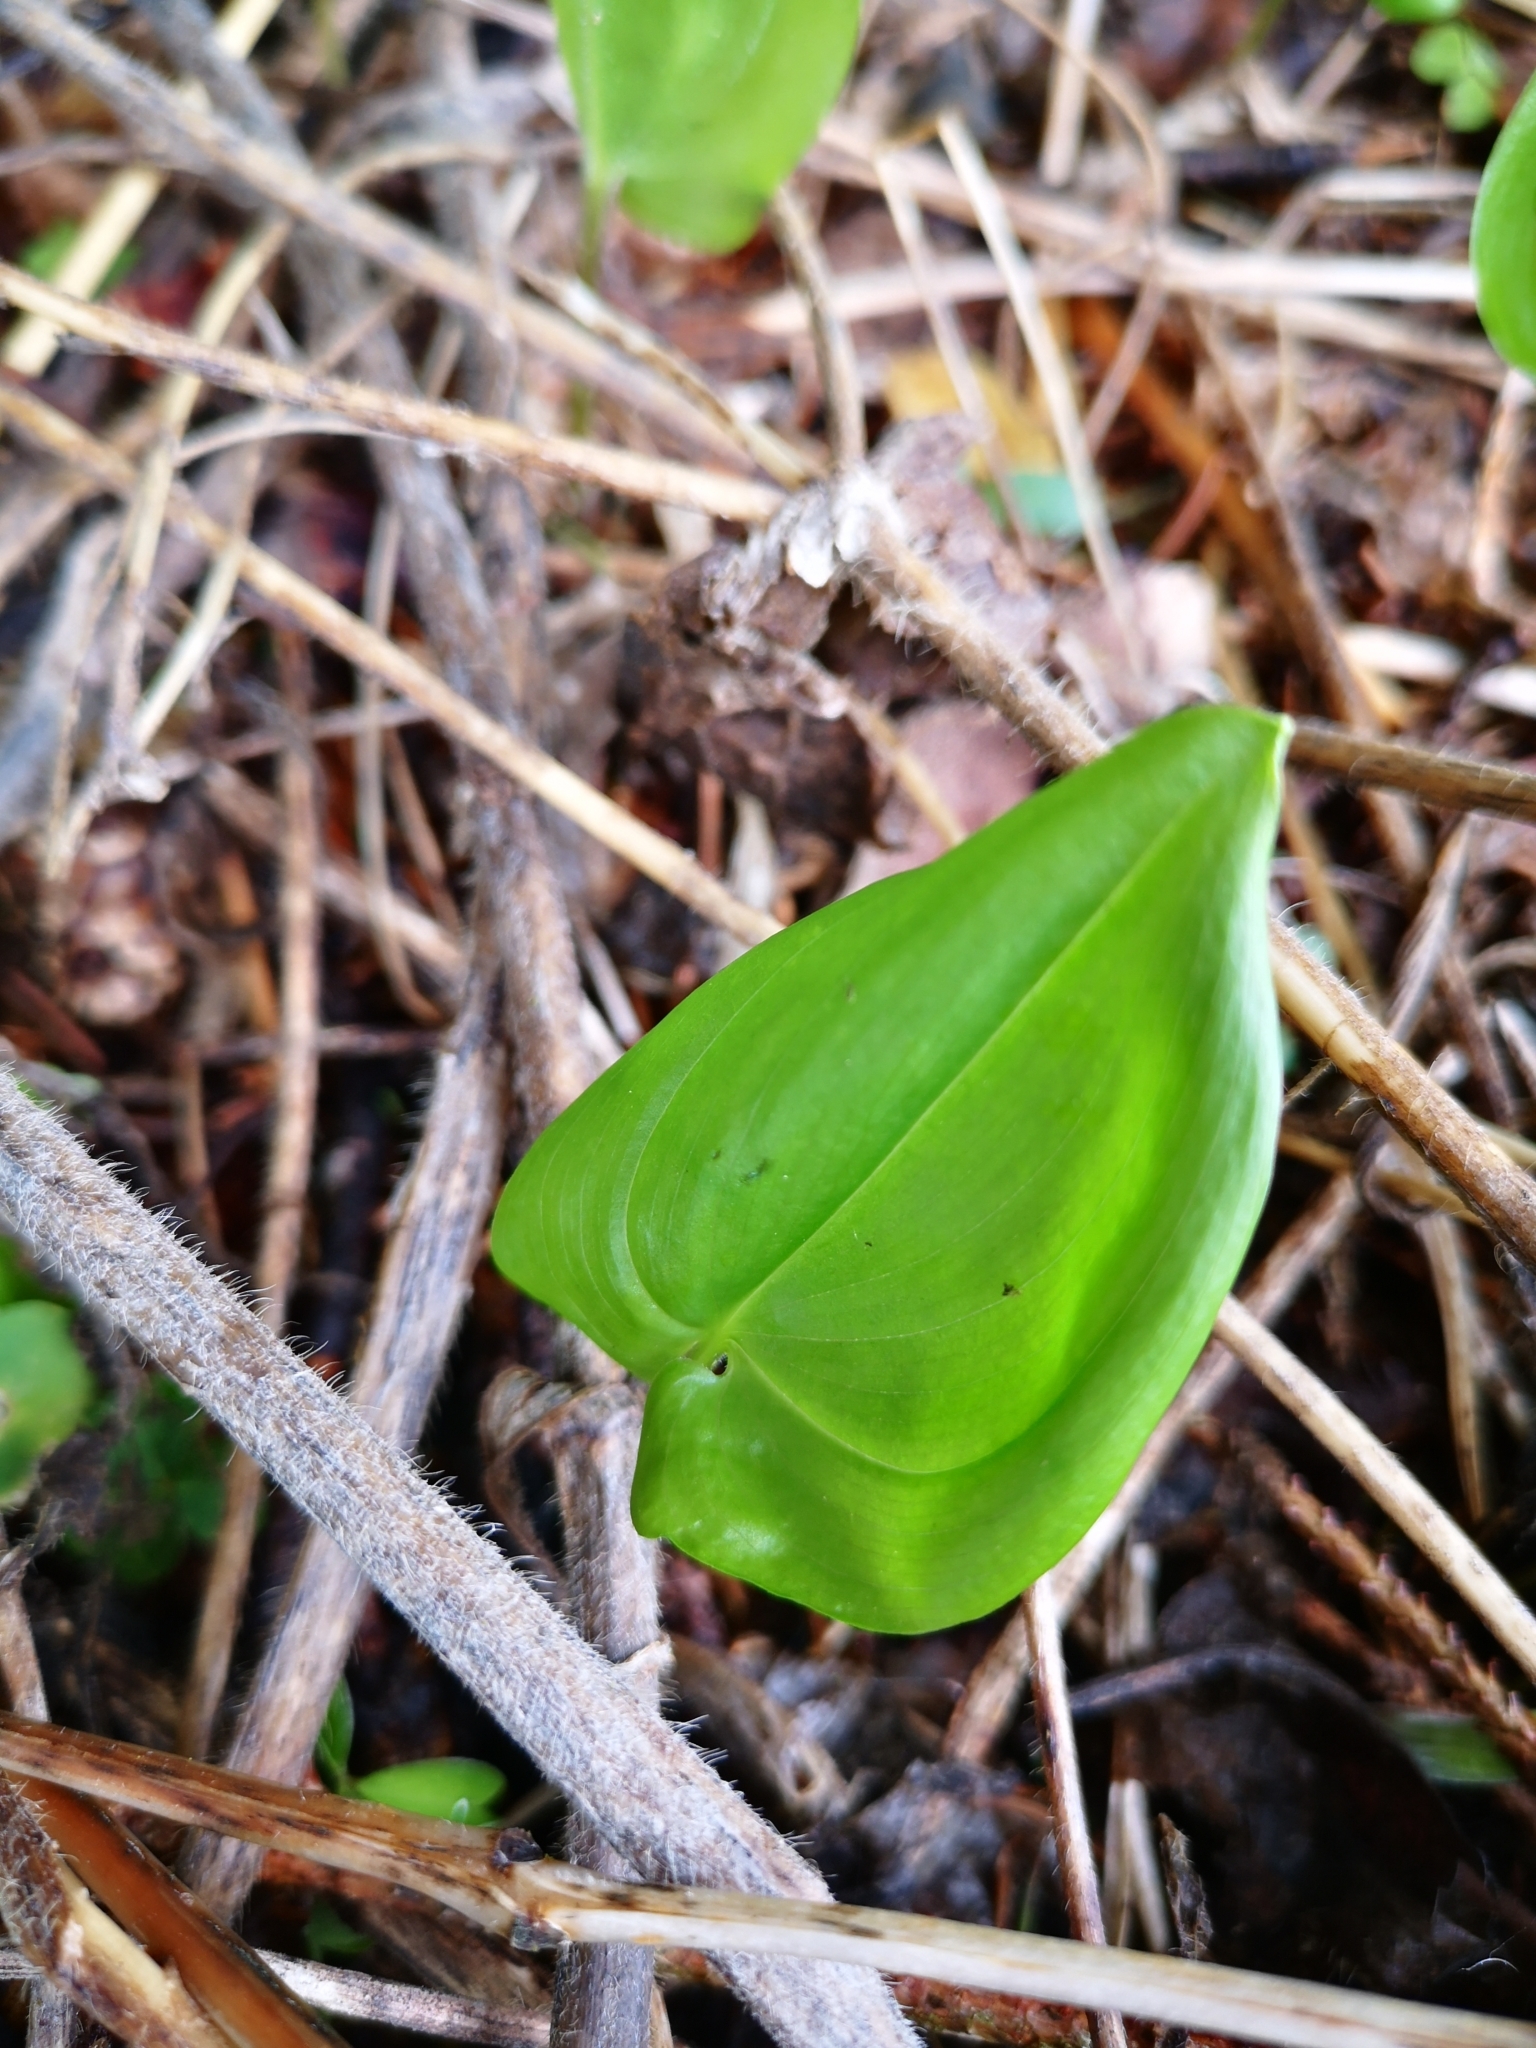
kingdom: Plantae
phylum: Tracheophyta
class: Liliopsida
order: Asparagales
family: Asparagaceae
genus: Maianthemum
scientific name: Maianthemum bifolium
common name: May lily
